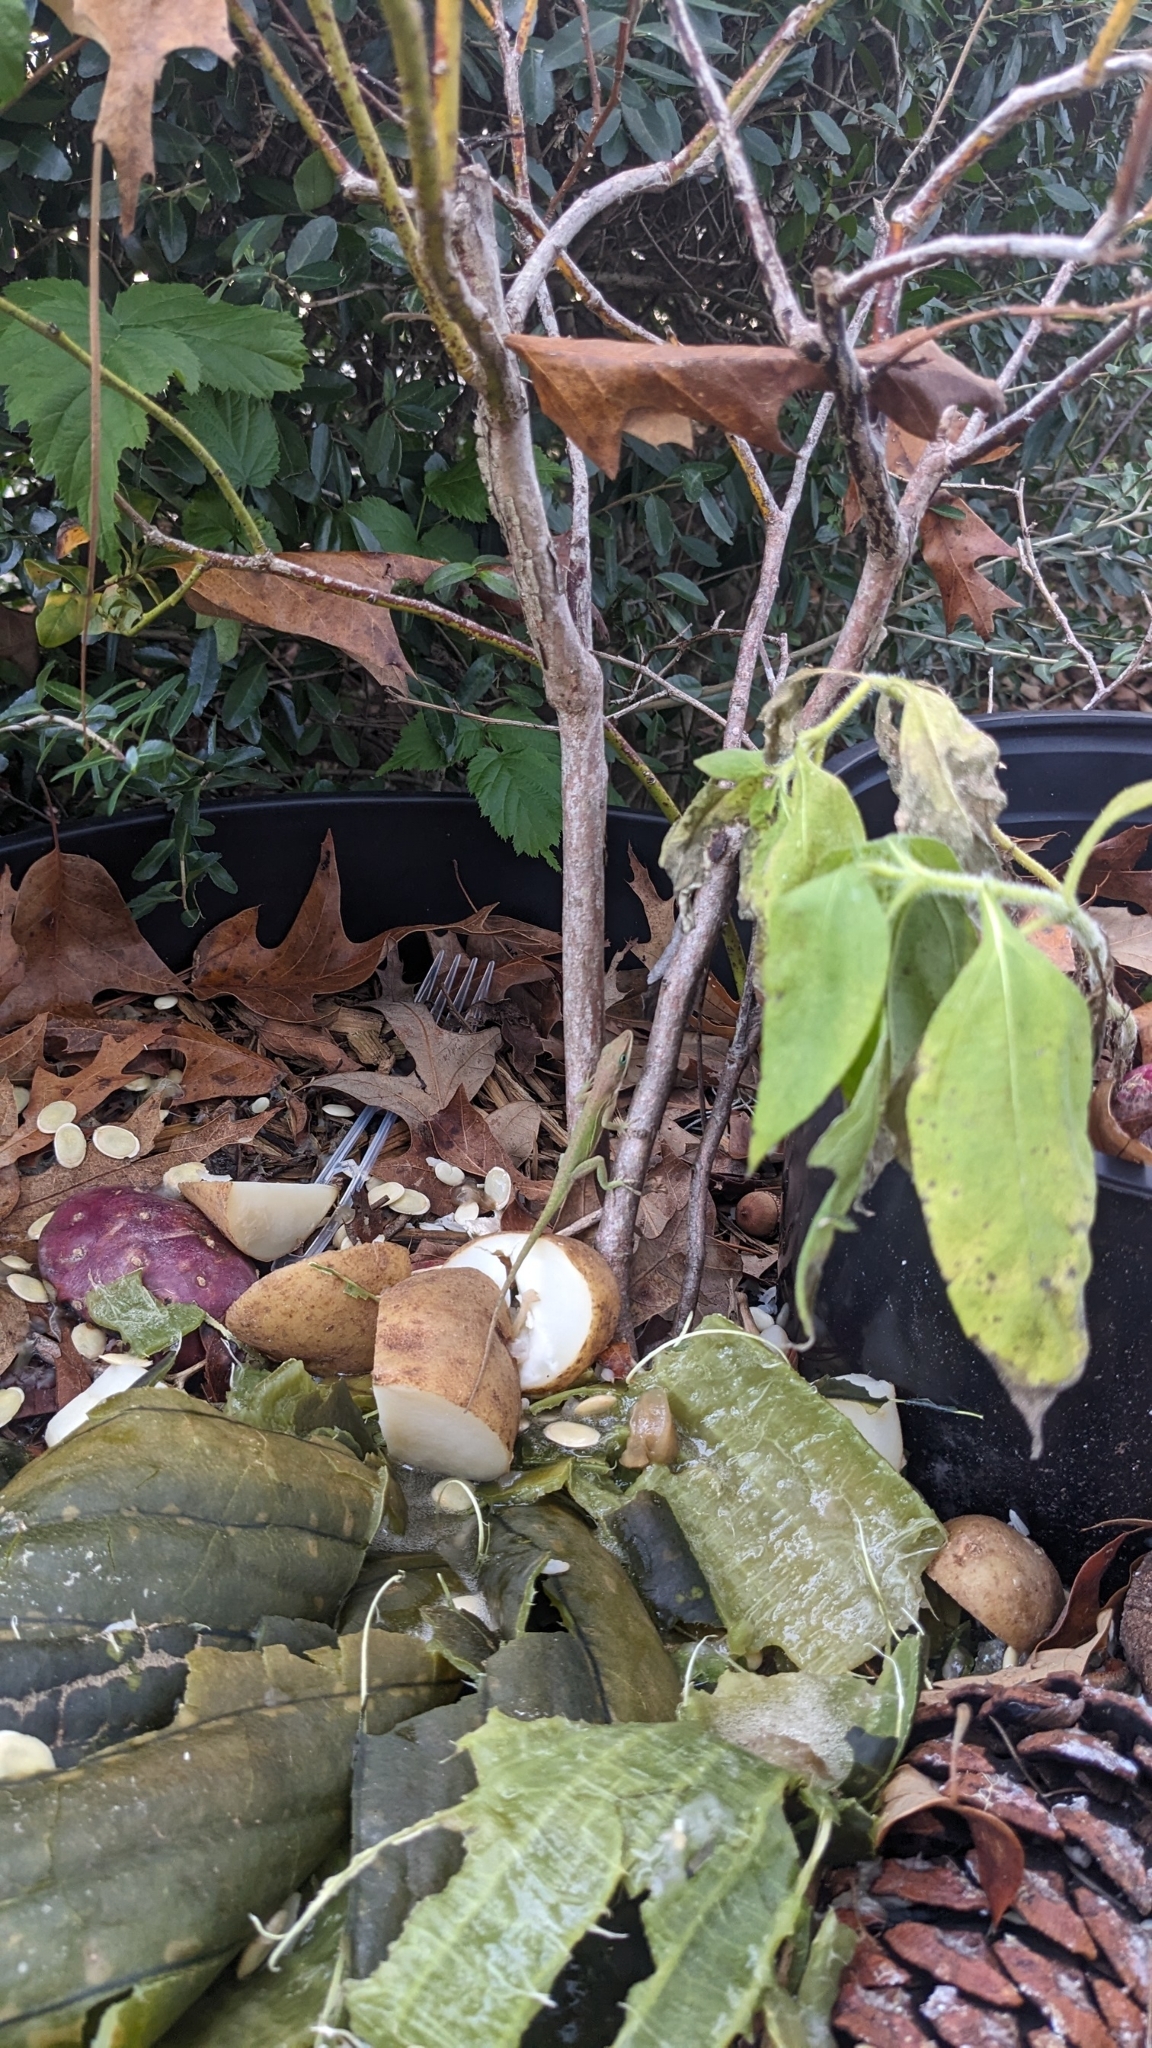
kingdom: Animalia
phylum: Chordata
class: Squamata
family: Dactyloidae
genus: Anolis
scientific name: Anolis carolinensis
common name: Green anole
